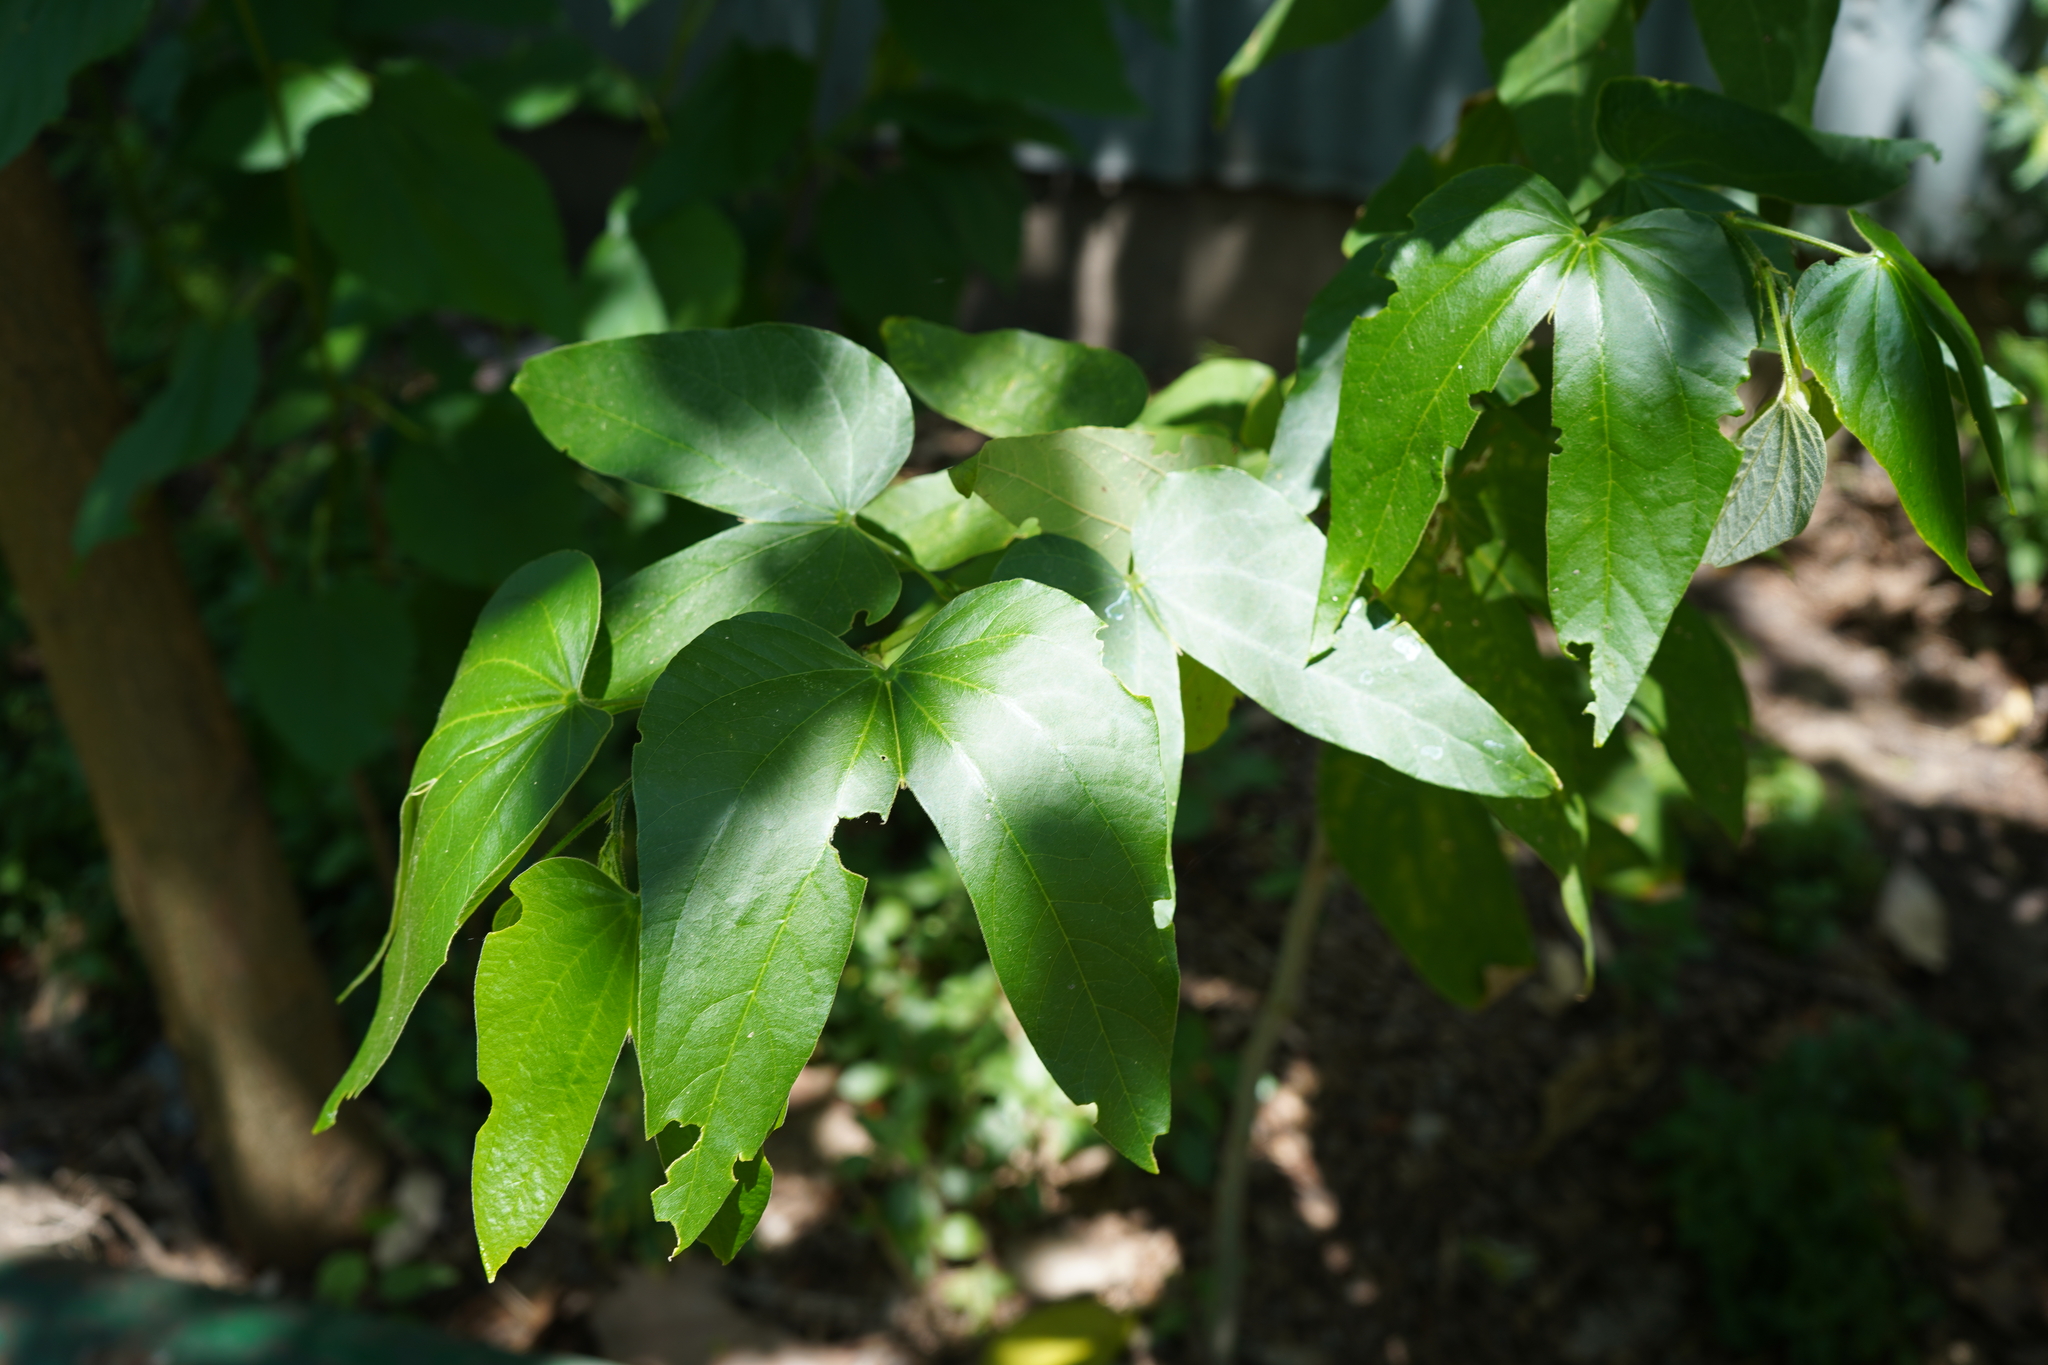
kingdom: Plantae
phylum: Tracheophyta
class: Magnoliopsida
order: Fabales
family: Fabaceae
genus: Bauhinia
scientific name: Bauhinia forficata
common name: Orchid tree
